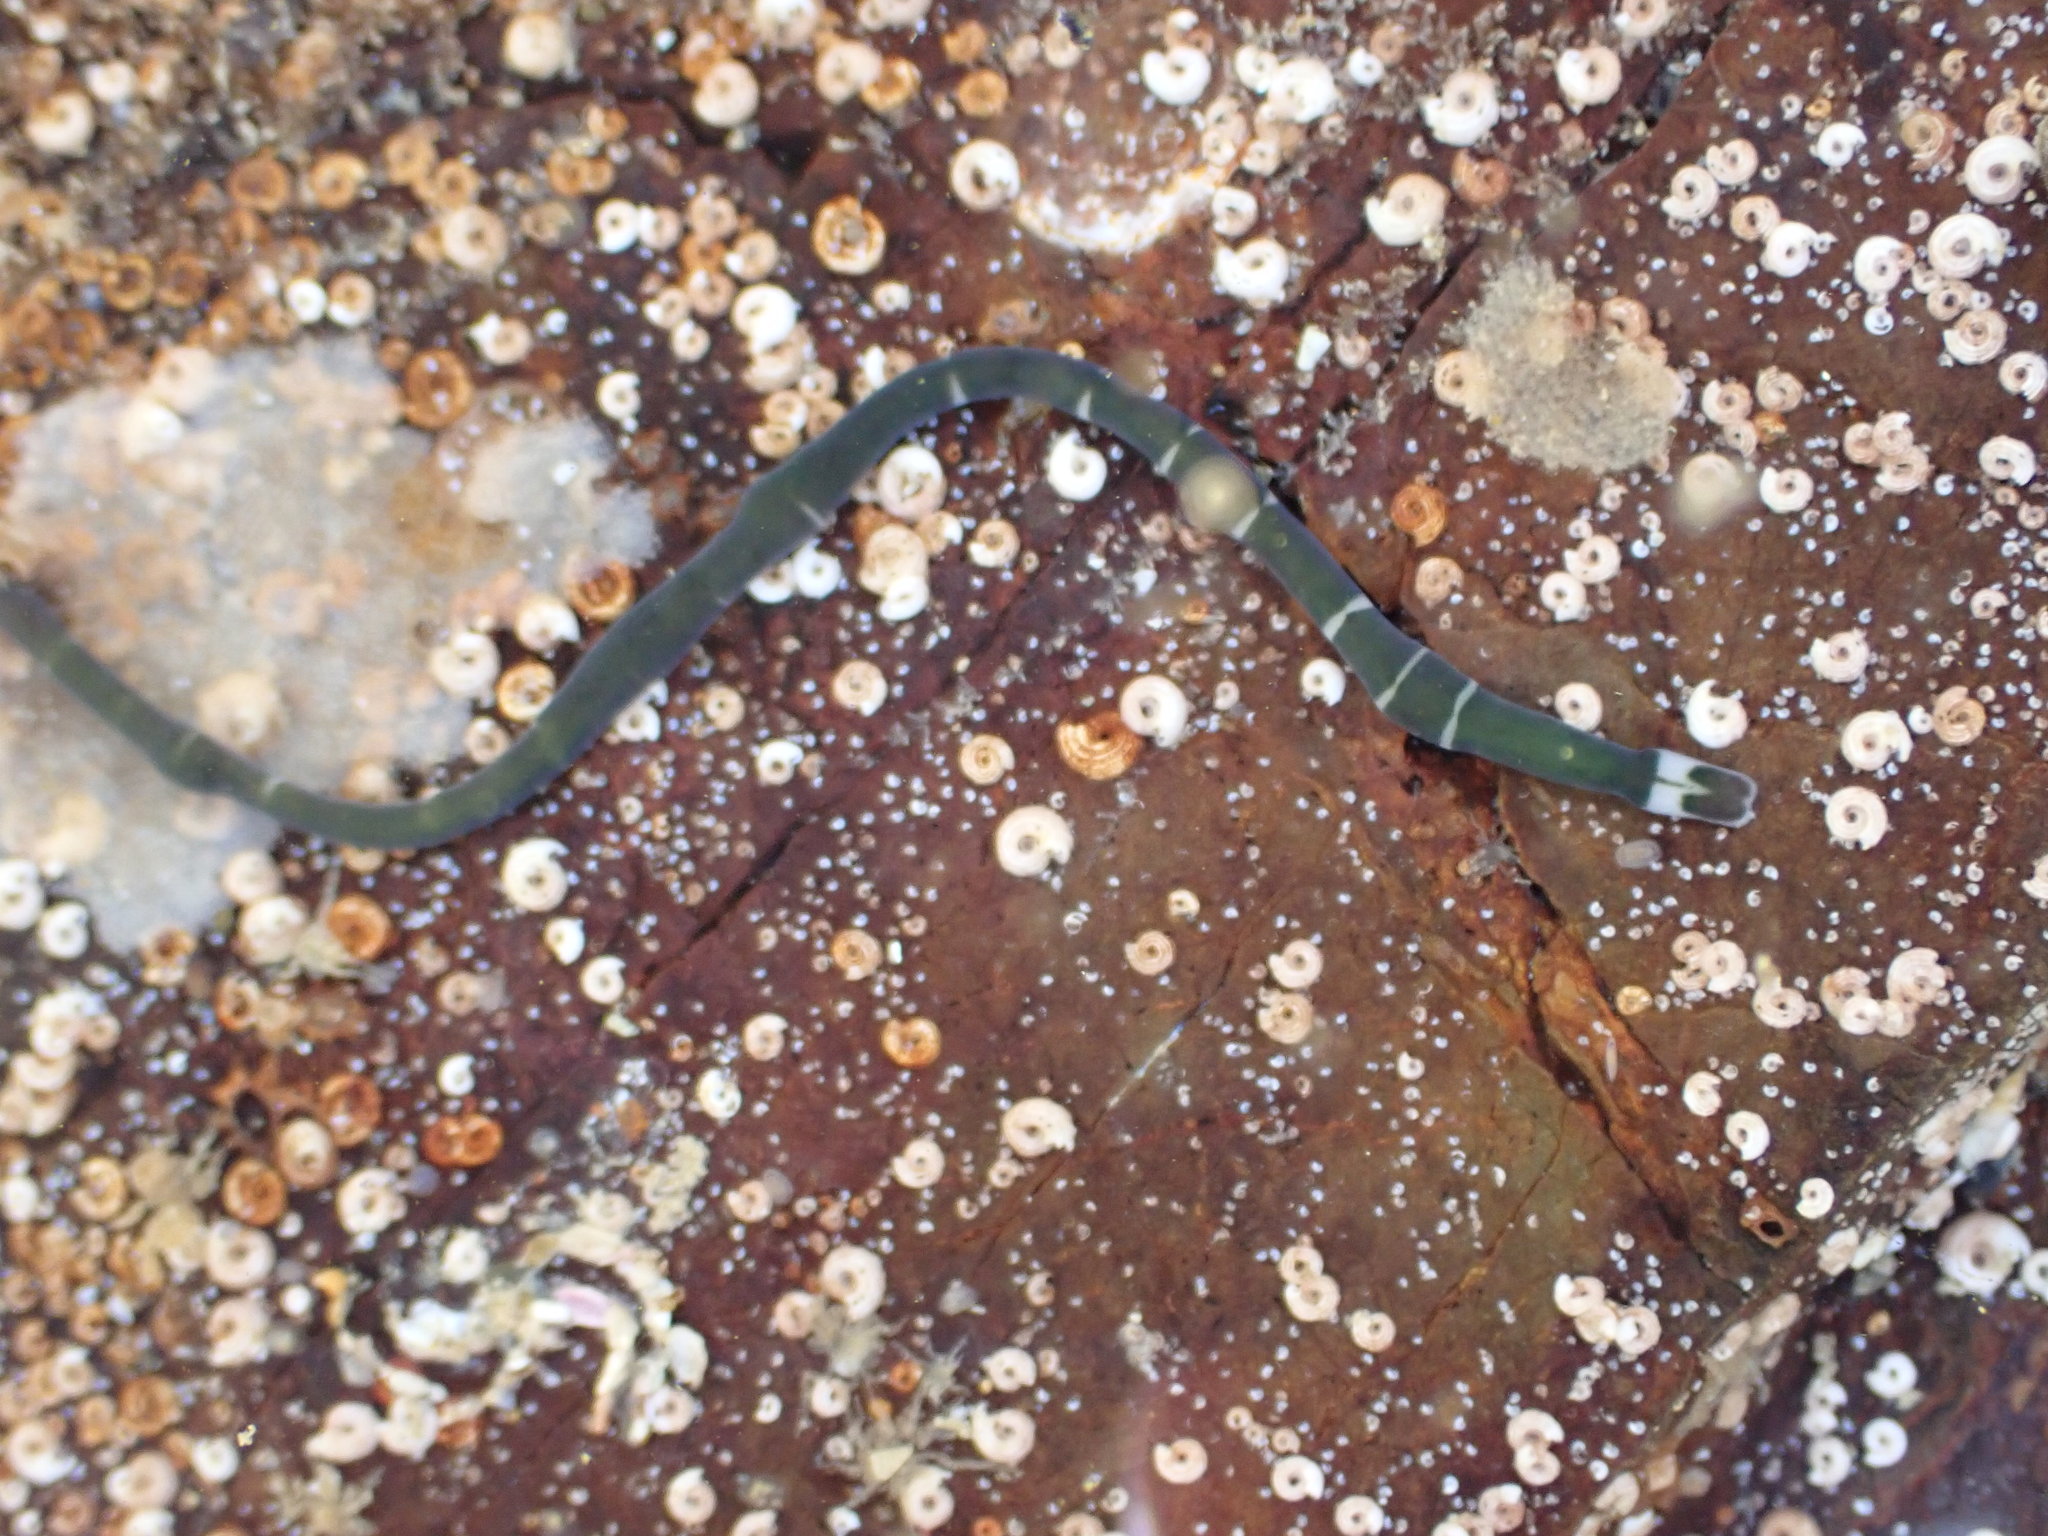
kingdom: Animalia
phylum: Nemertea
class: Pilidiophora
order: Heteronemertea
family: Lineidae
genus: Notospermus
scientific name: Notospermus geniculatus
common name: Banded bootlace
